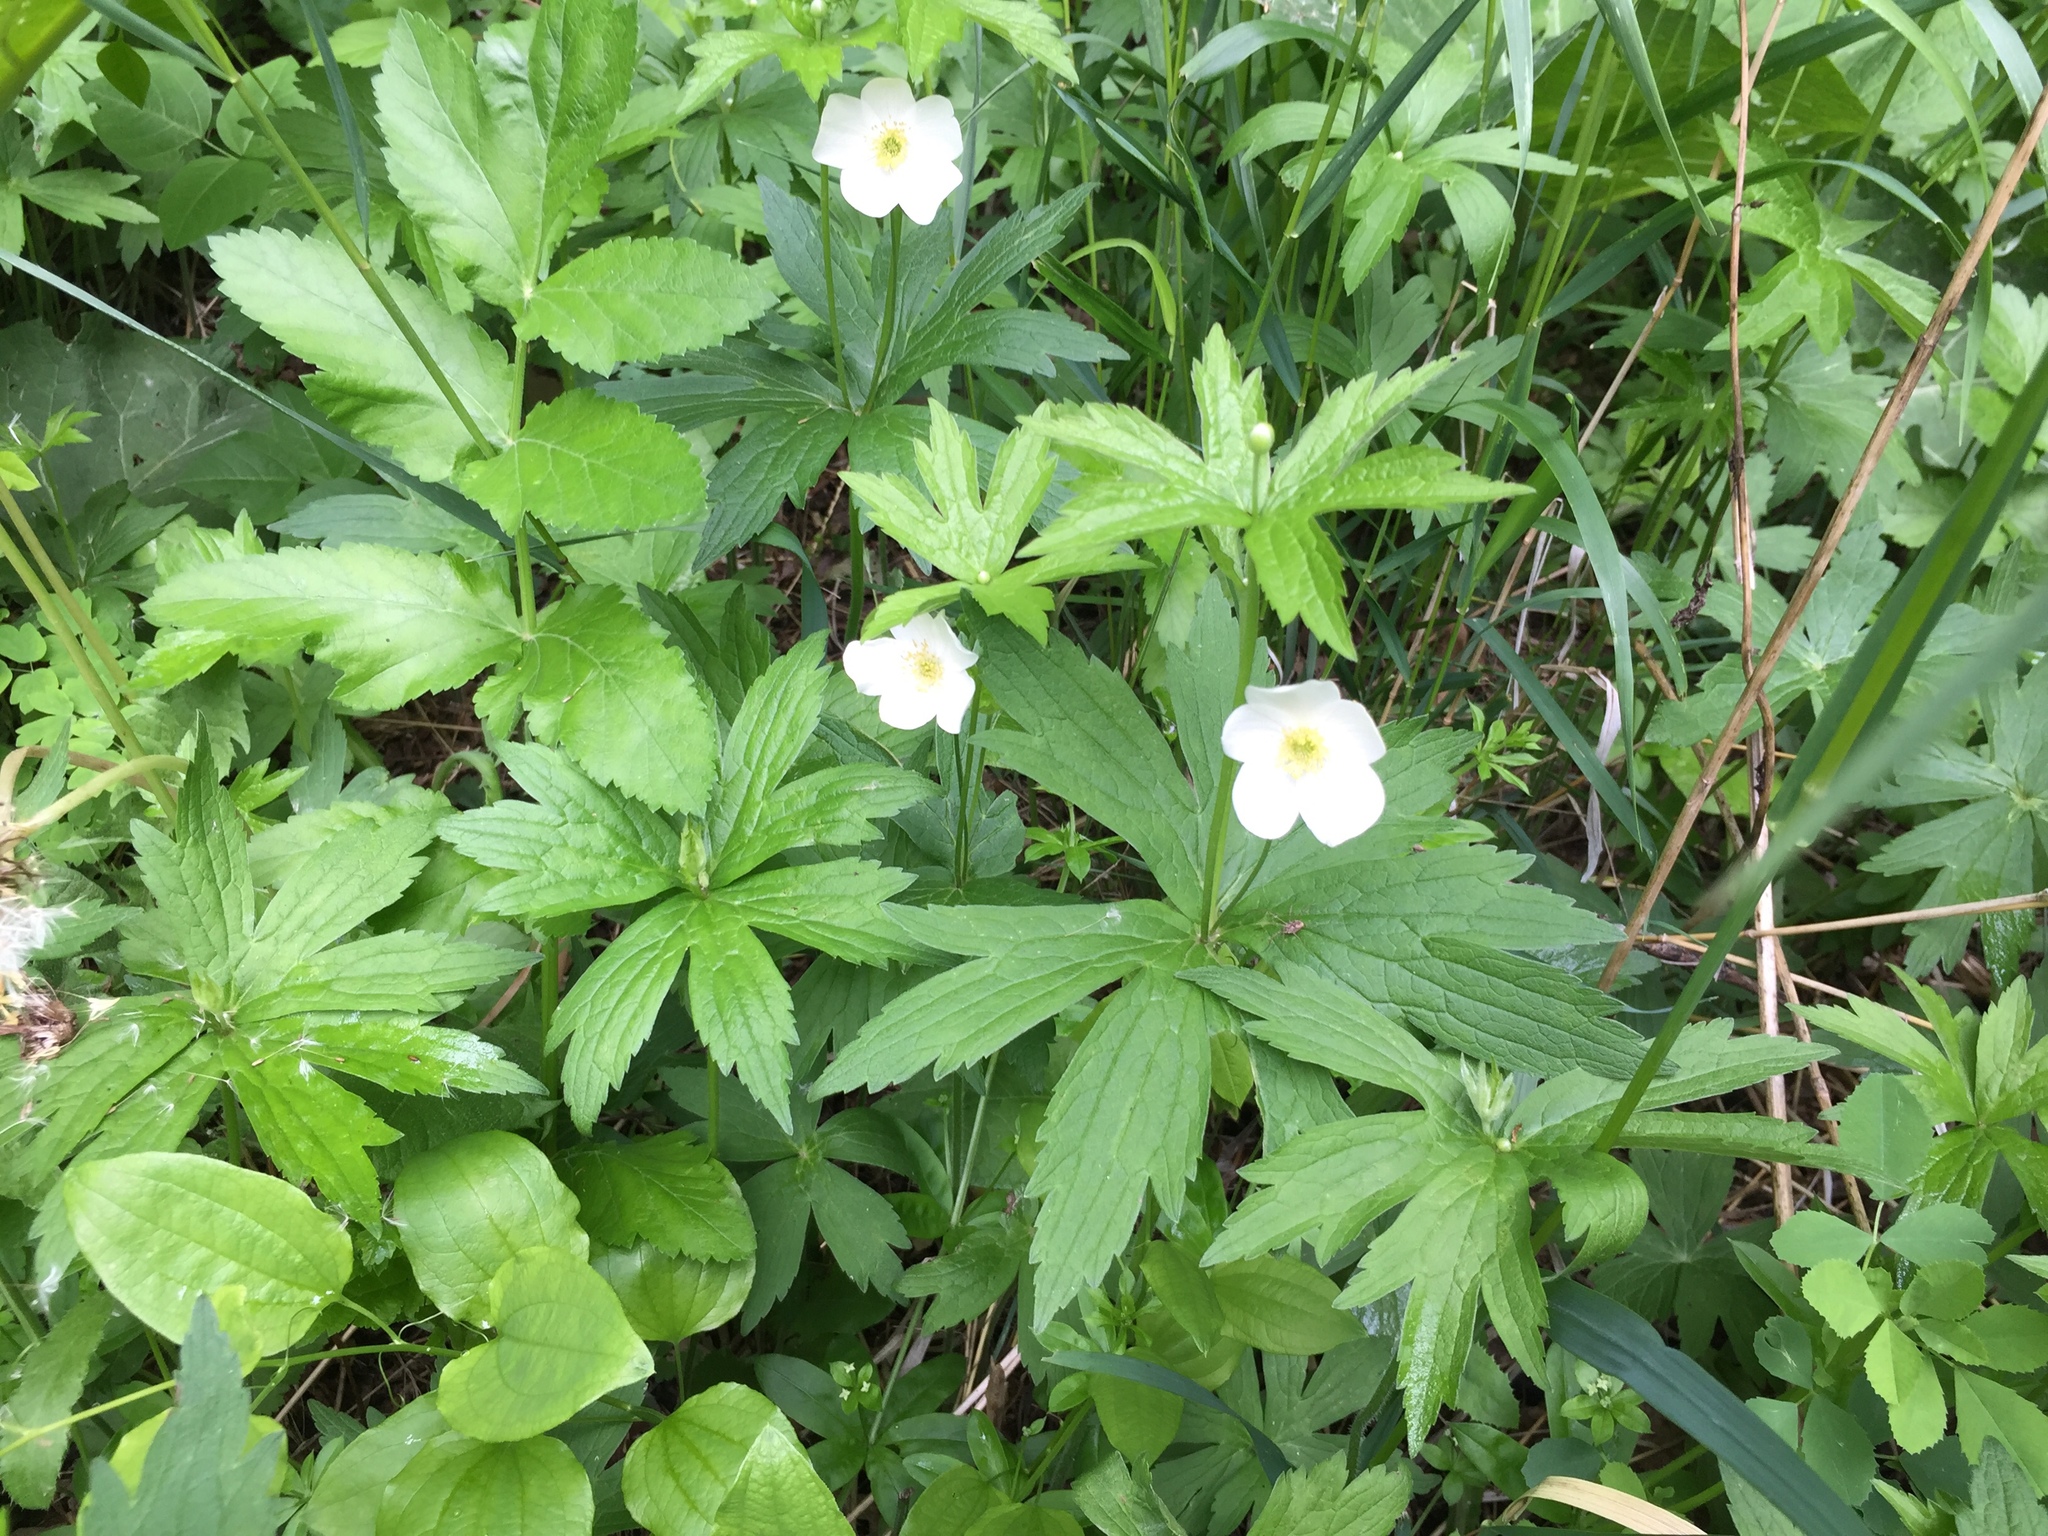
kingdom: Plantae
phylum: Tracheophyta
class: Magnoliopsida
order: Ranunculales
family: Ranunculaceae
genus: Anemonastrum
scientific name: Anemonastrum canadense
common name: Canada anemone
